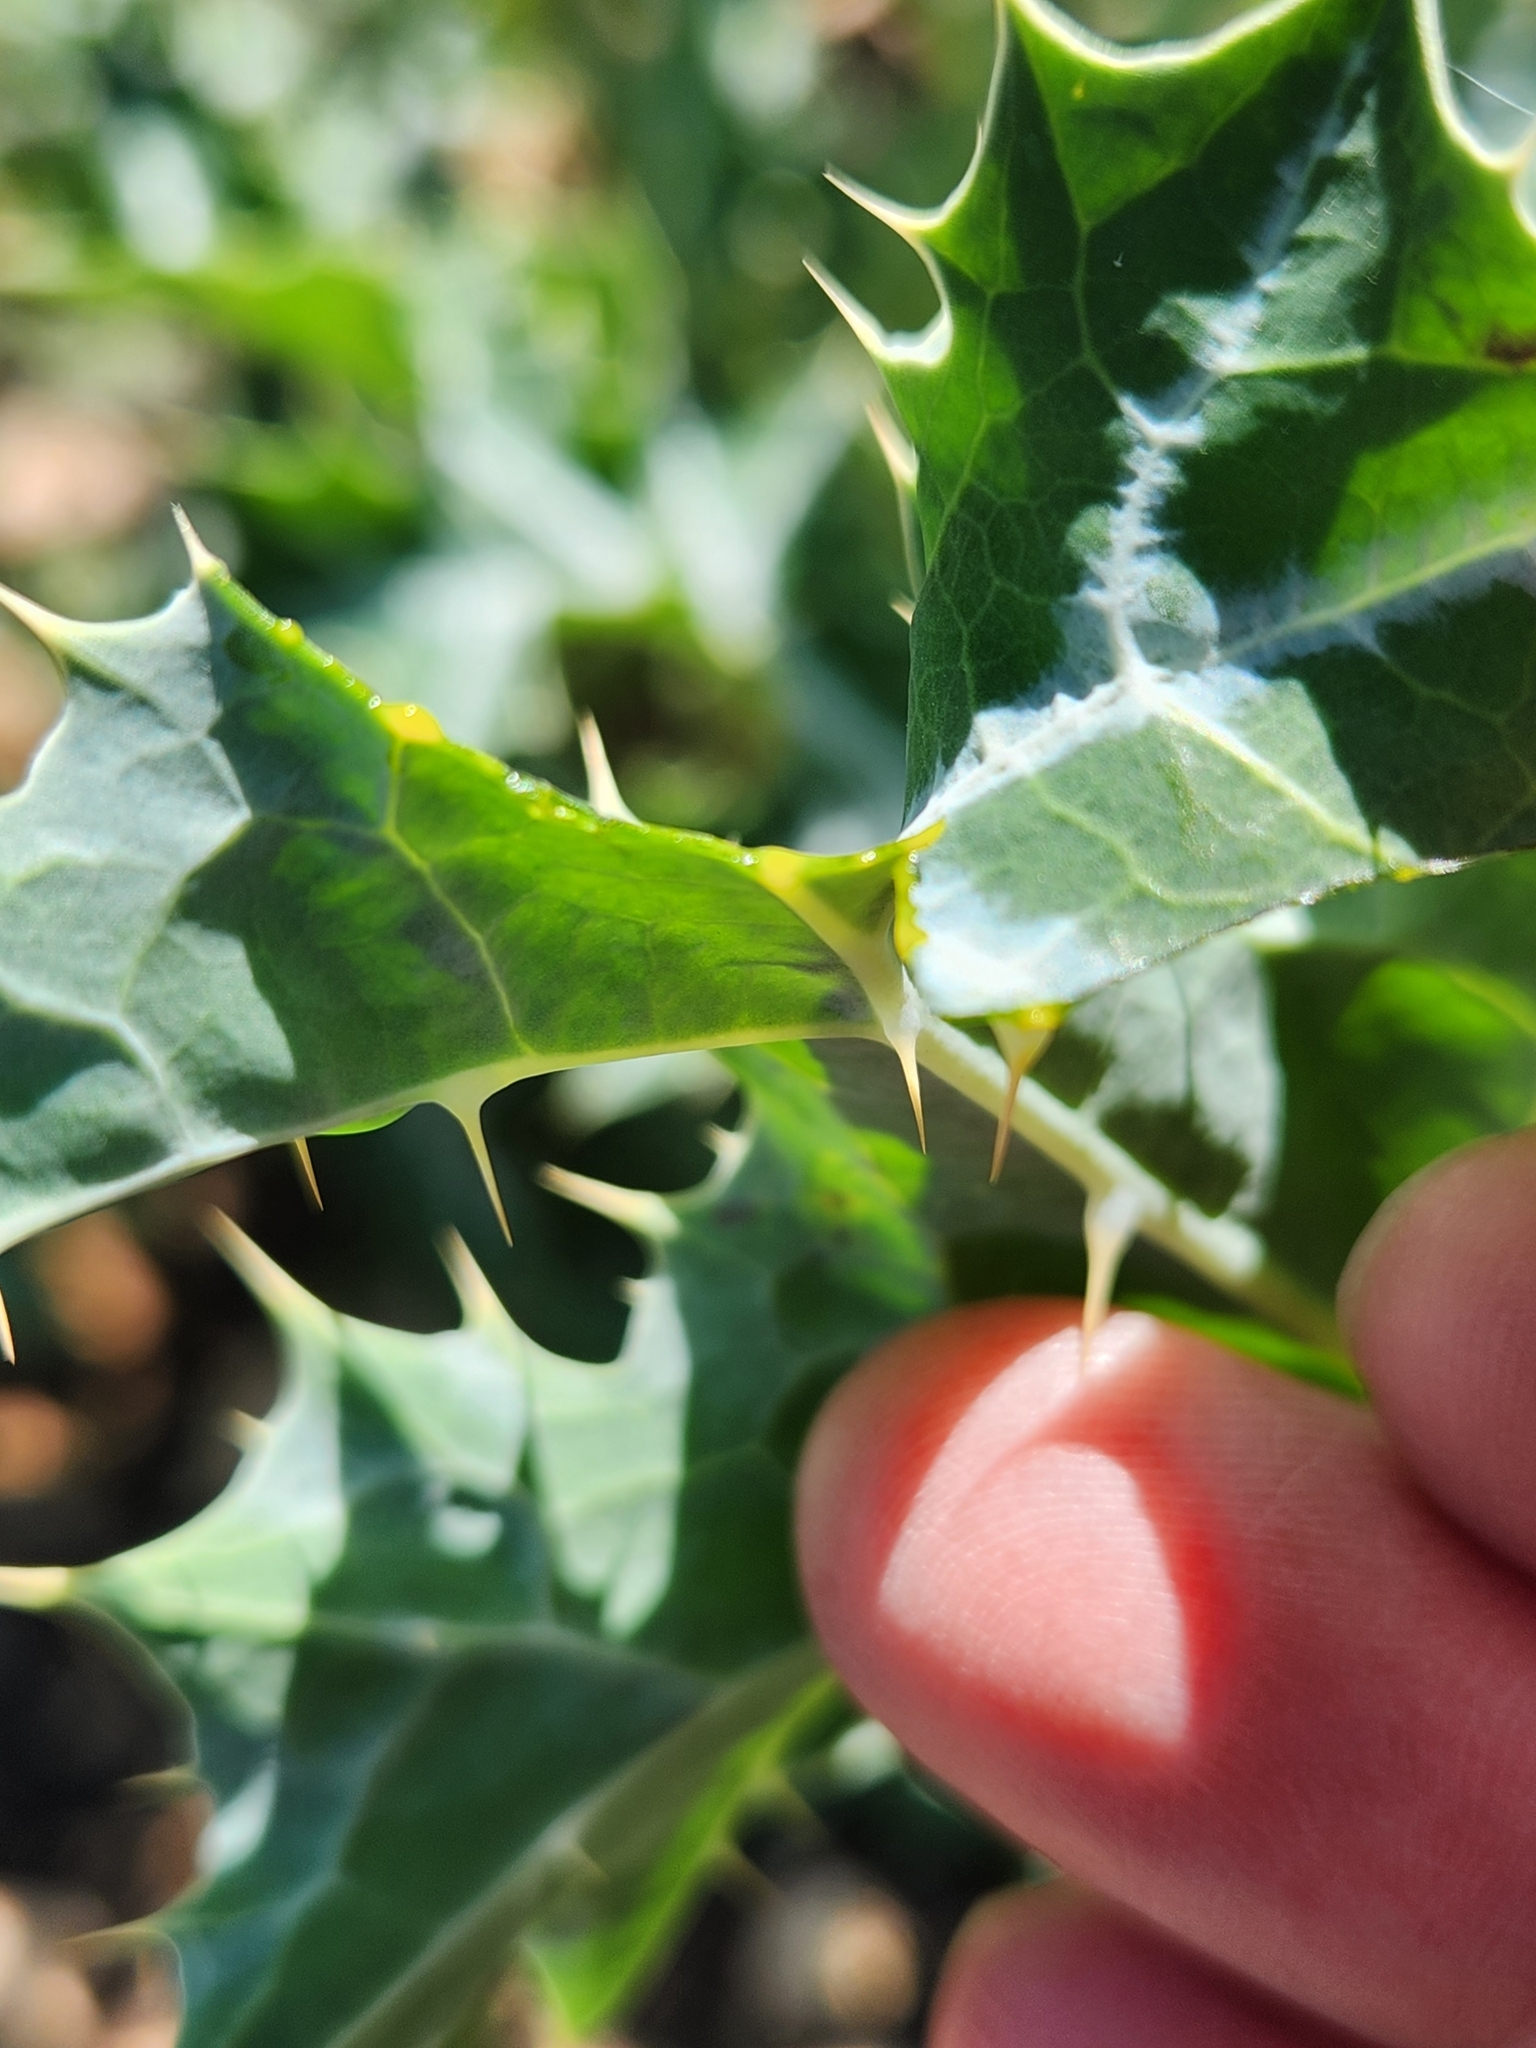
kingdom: Plantae
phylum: Tracheophyta
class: Magnoliopsida
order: Ranunculales
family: Papaveraceae
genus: Argemone
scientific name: Argemone mexicana
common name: Mexican poppy
